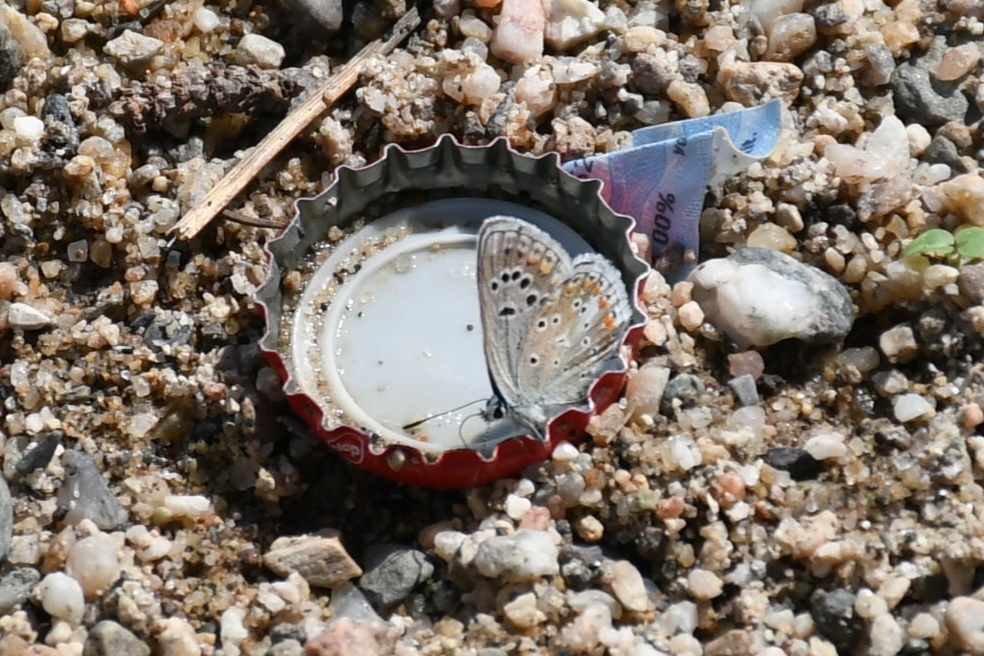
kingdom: Animalia
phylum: Arthropoda
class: Insecta
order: Lepidoptera
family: Lycaenidae
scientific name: Lycaenidae
